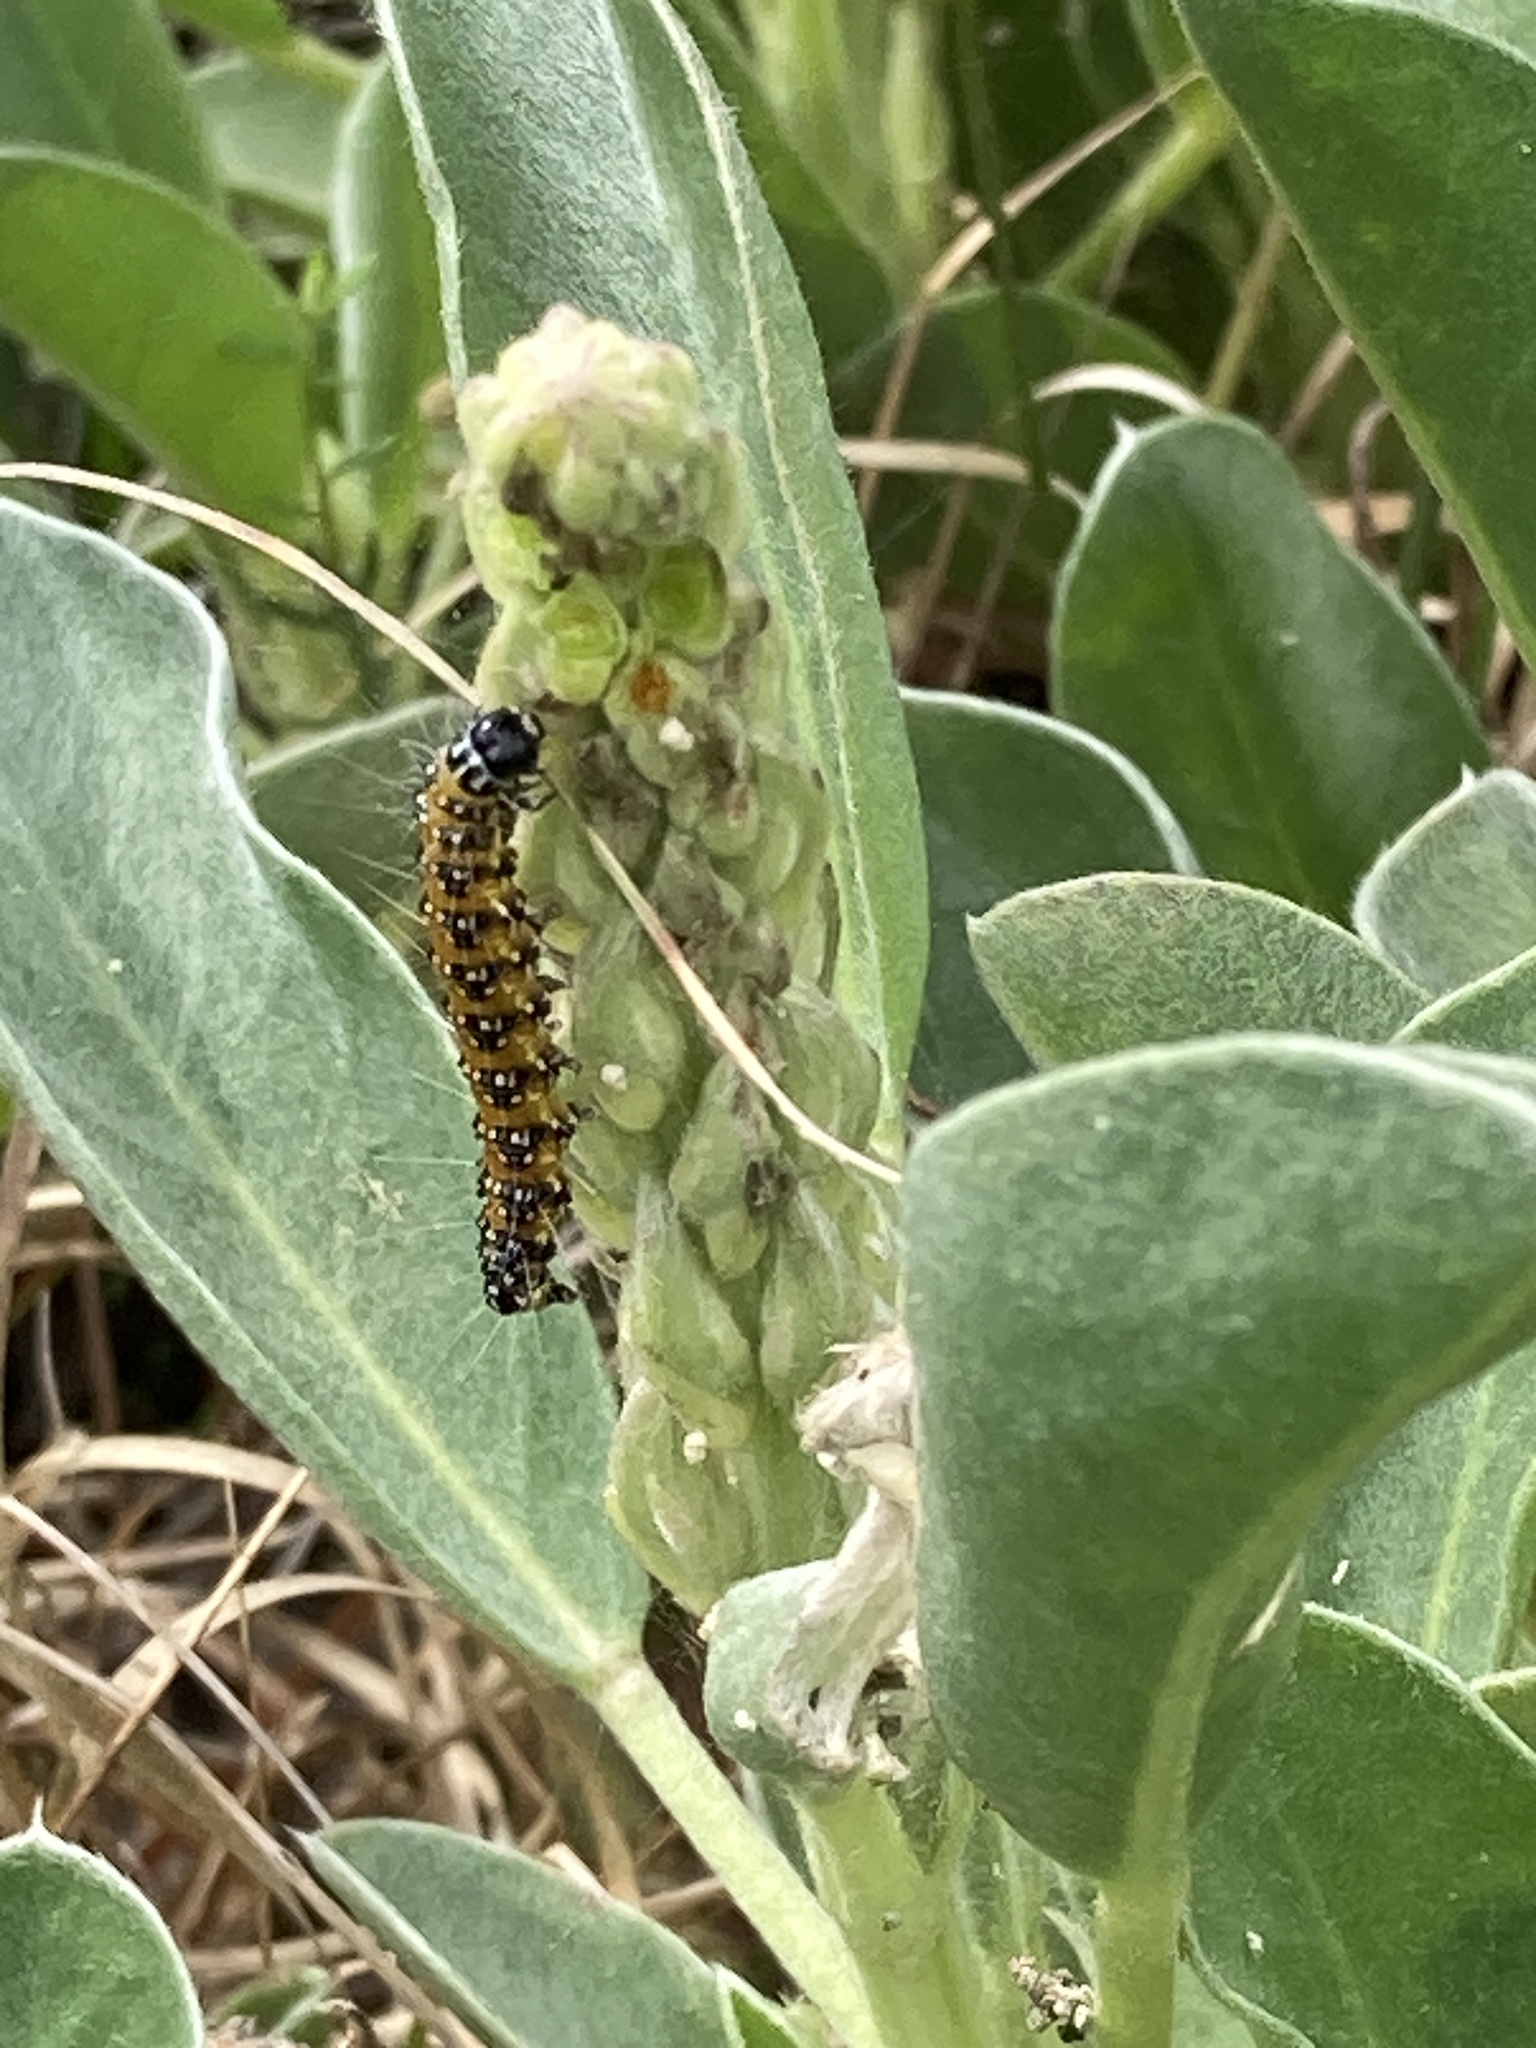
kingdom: Animalia
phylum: Arthropoda
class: Insecta
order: Lepidoptera
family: Crambidae
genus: Uresiphita
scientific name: Uresiphita reversalis
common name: Genista broom moth
